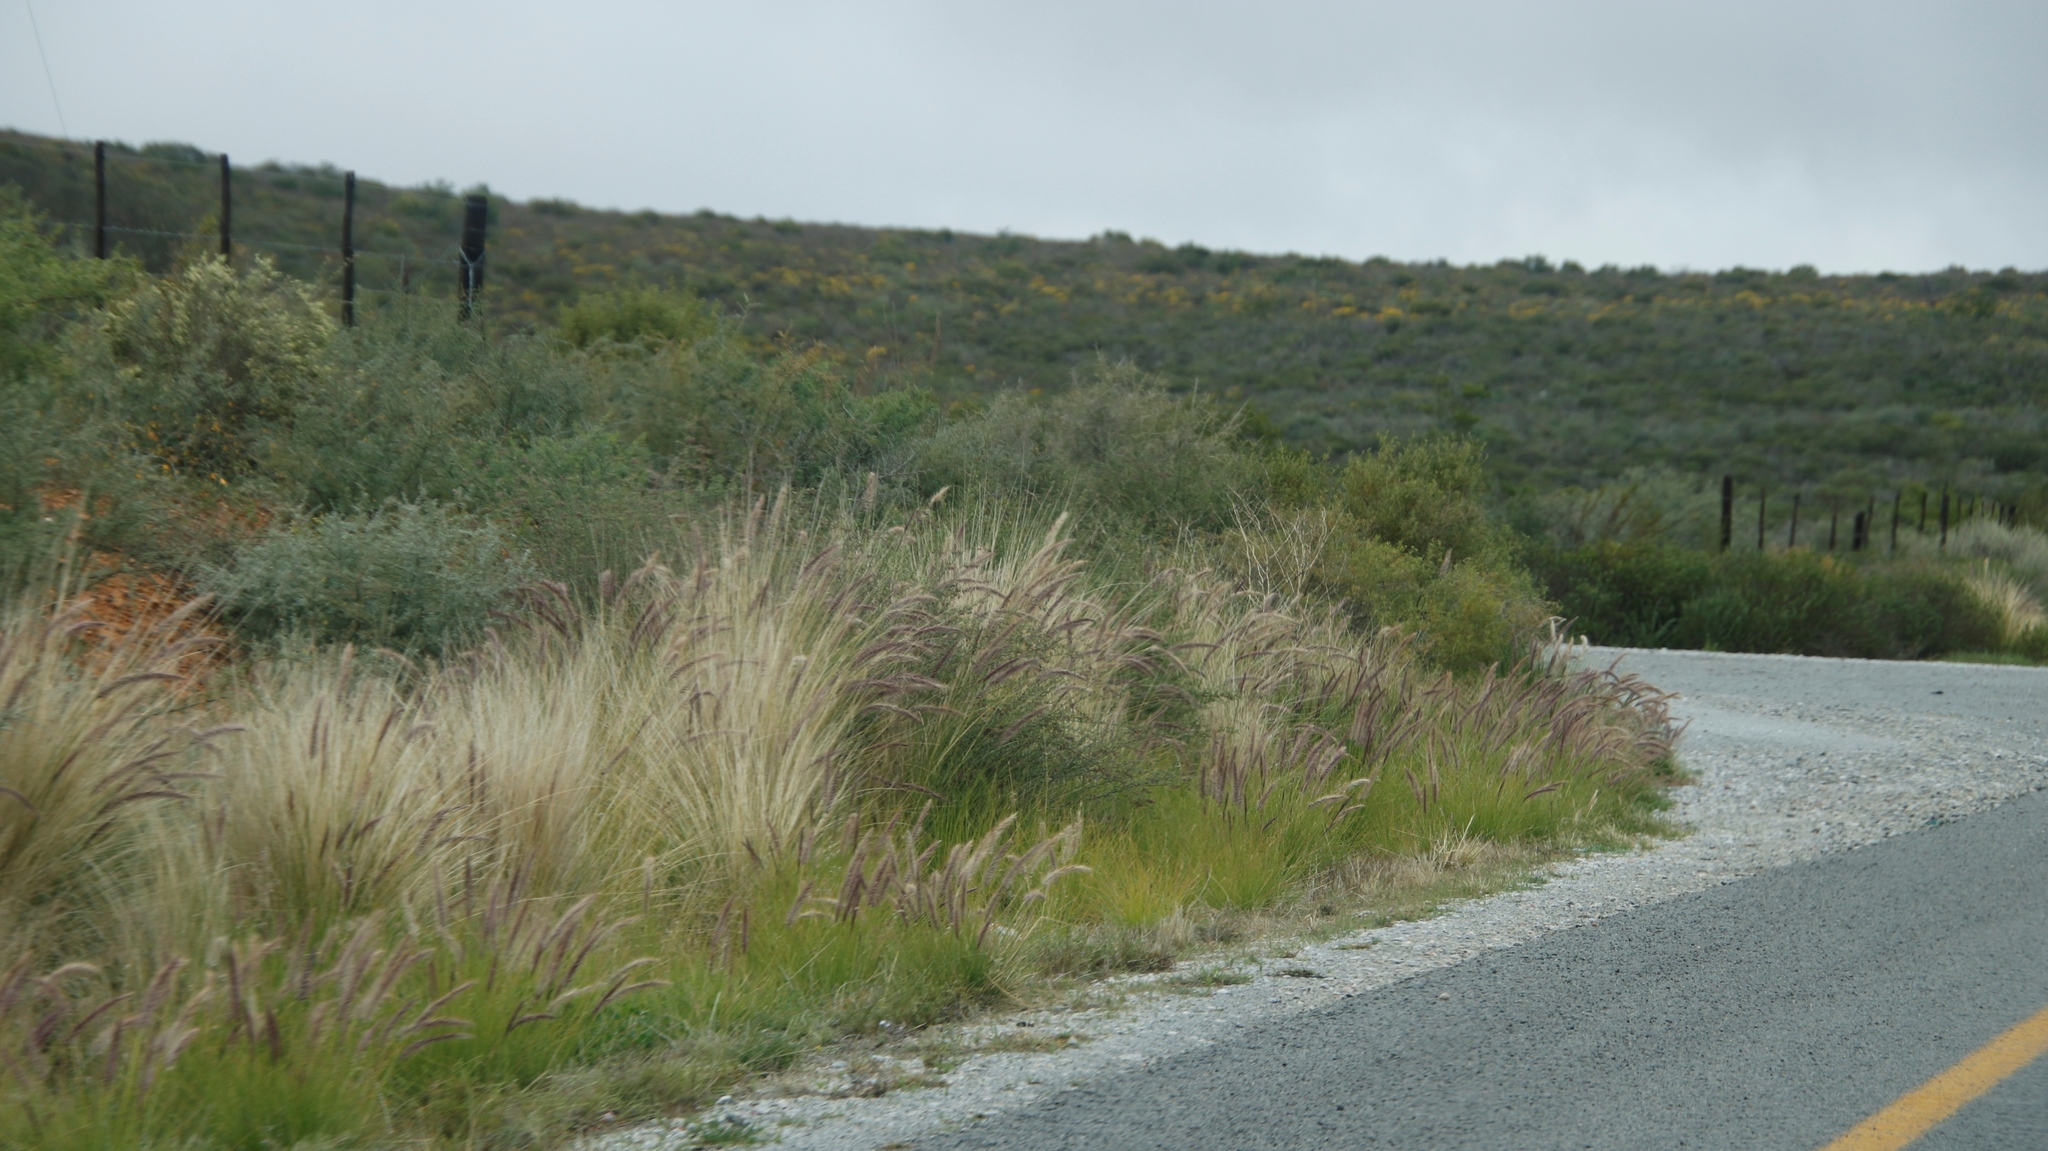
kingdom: Plantae
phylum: Tracheophyta
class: Liliopsida
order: Poales
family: Poaceae
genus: Cenchrus
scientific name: Cenchrus setaceus
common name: Crimson fountaingrass
